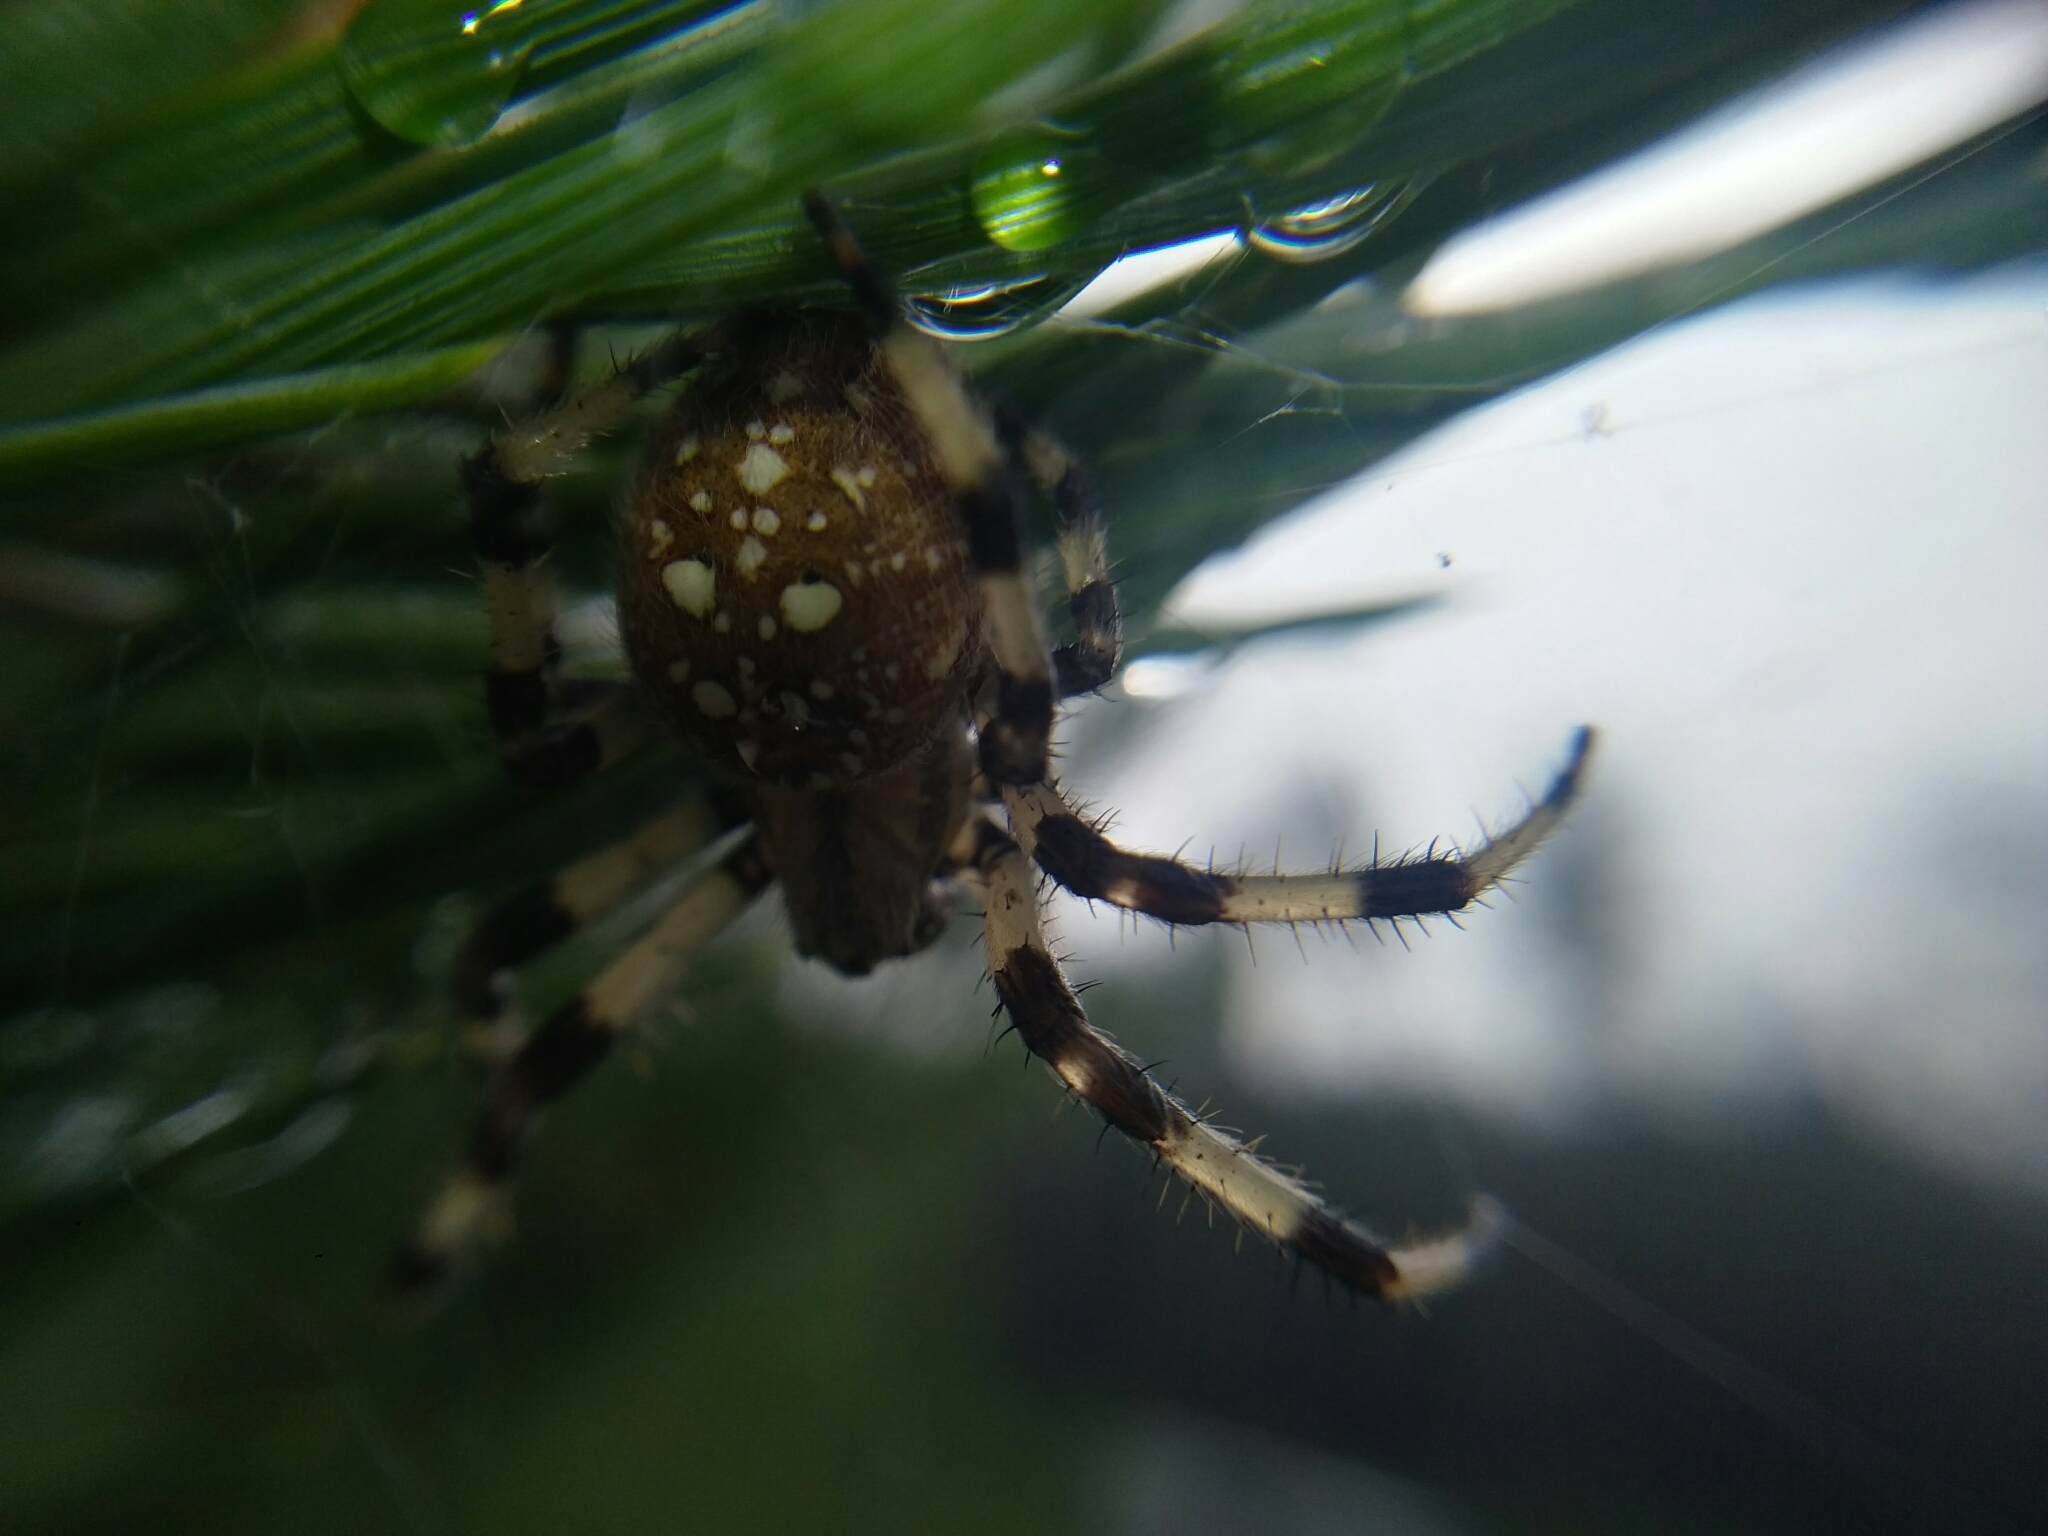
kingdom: Animalia
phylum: Arthropoda
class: Arachnida
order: Araneae
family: Araneidae
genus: Araneus
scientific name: Araneus quadratus
